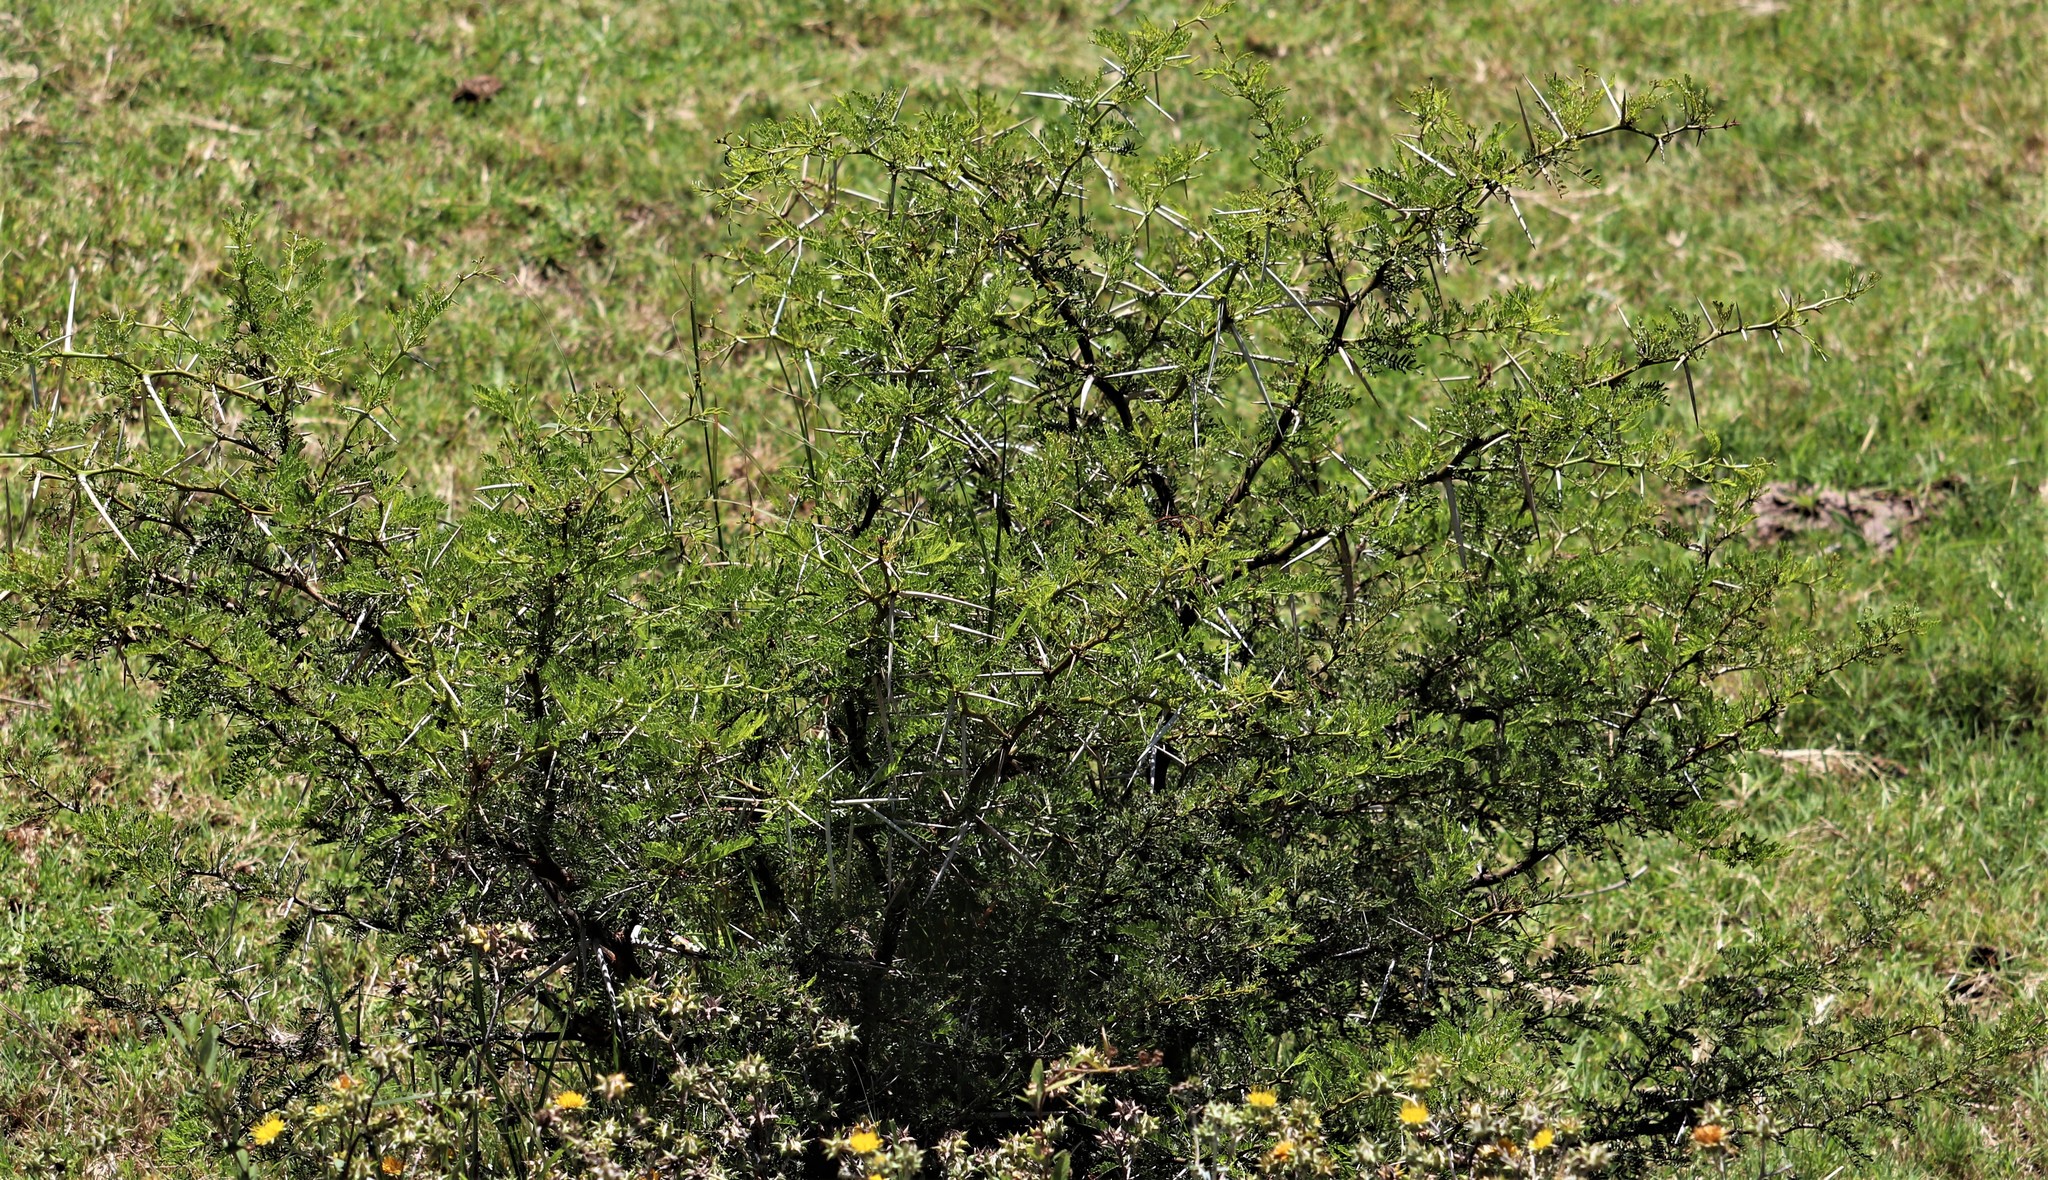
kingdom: Plantae
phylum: Tracheophyta
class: Magnoliopsida
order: Fabales
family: Fabaceae
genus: Vachellia
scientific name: Vachellia karroo
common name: Sweet thorn
